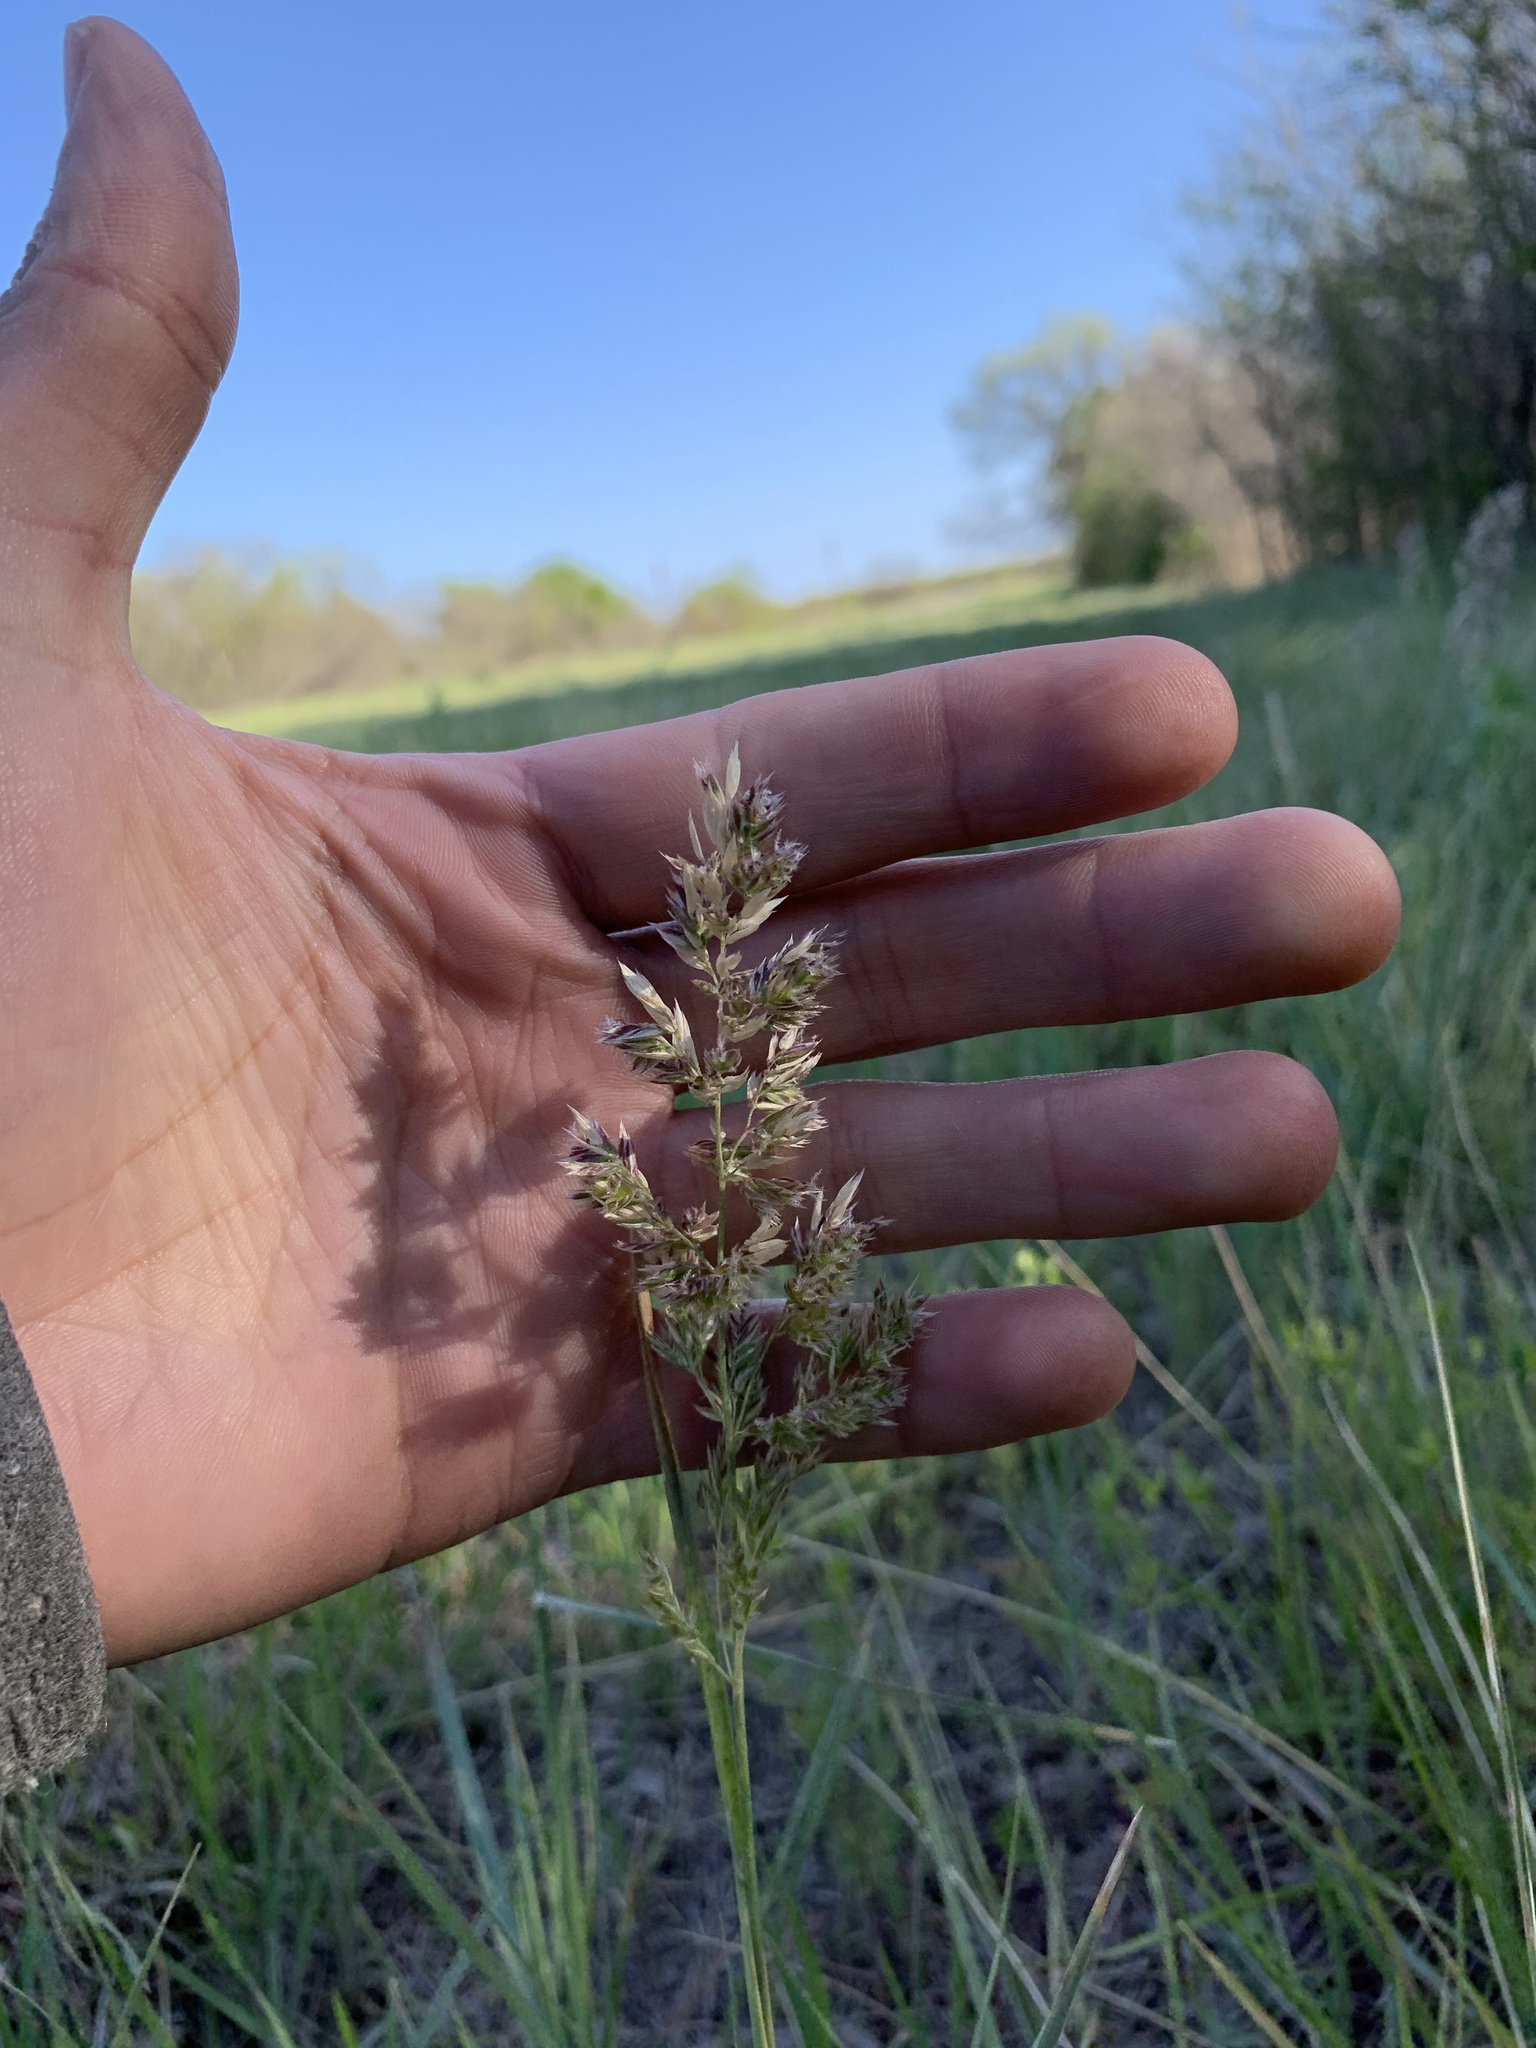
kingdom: Plantae
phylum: Tracheophyta
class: Liliopsida
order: Poales
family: Poaceae
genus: Poa
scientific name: Poa arachnifera
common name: Texas bluegrass
